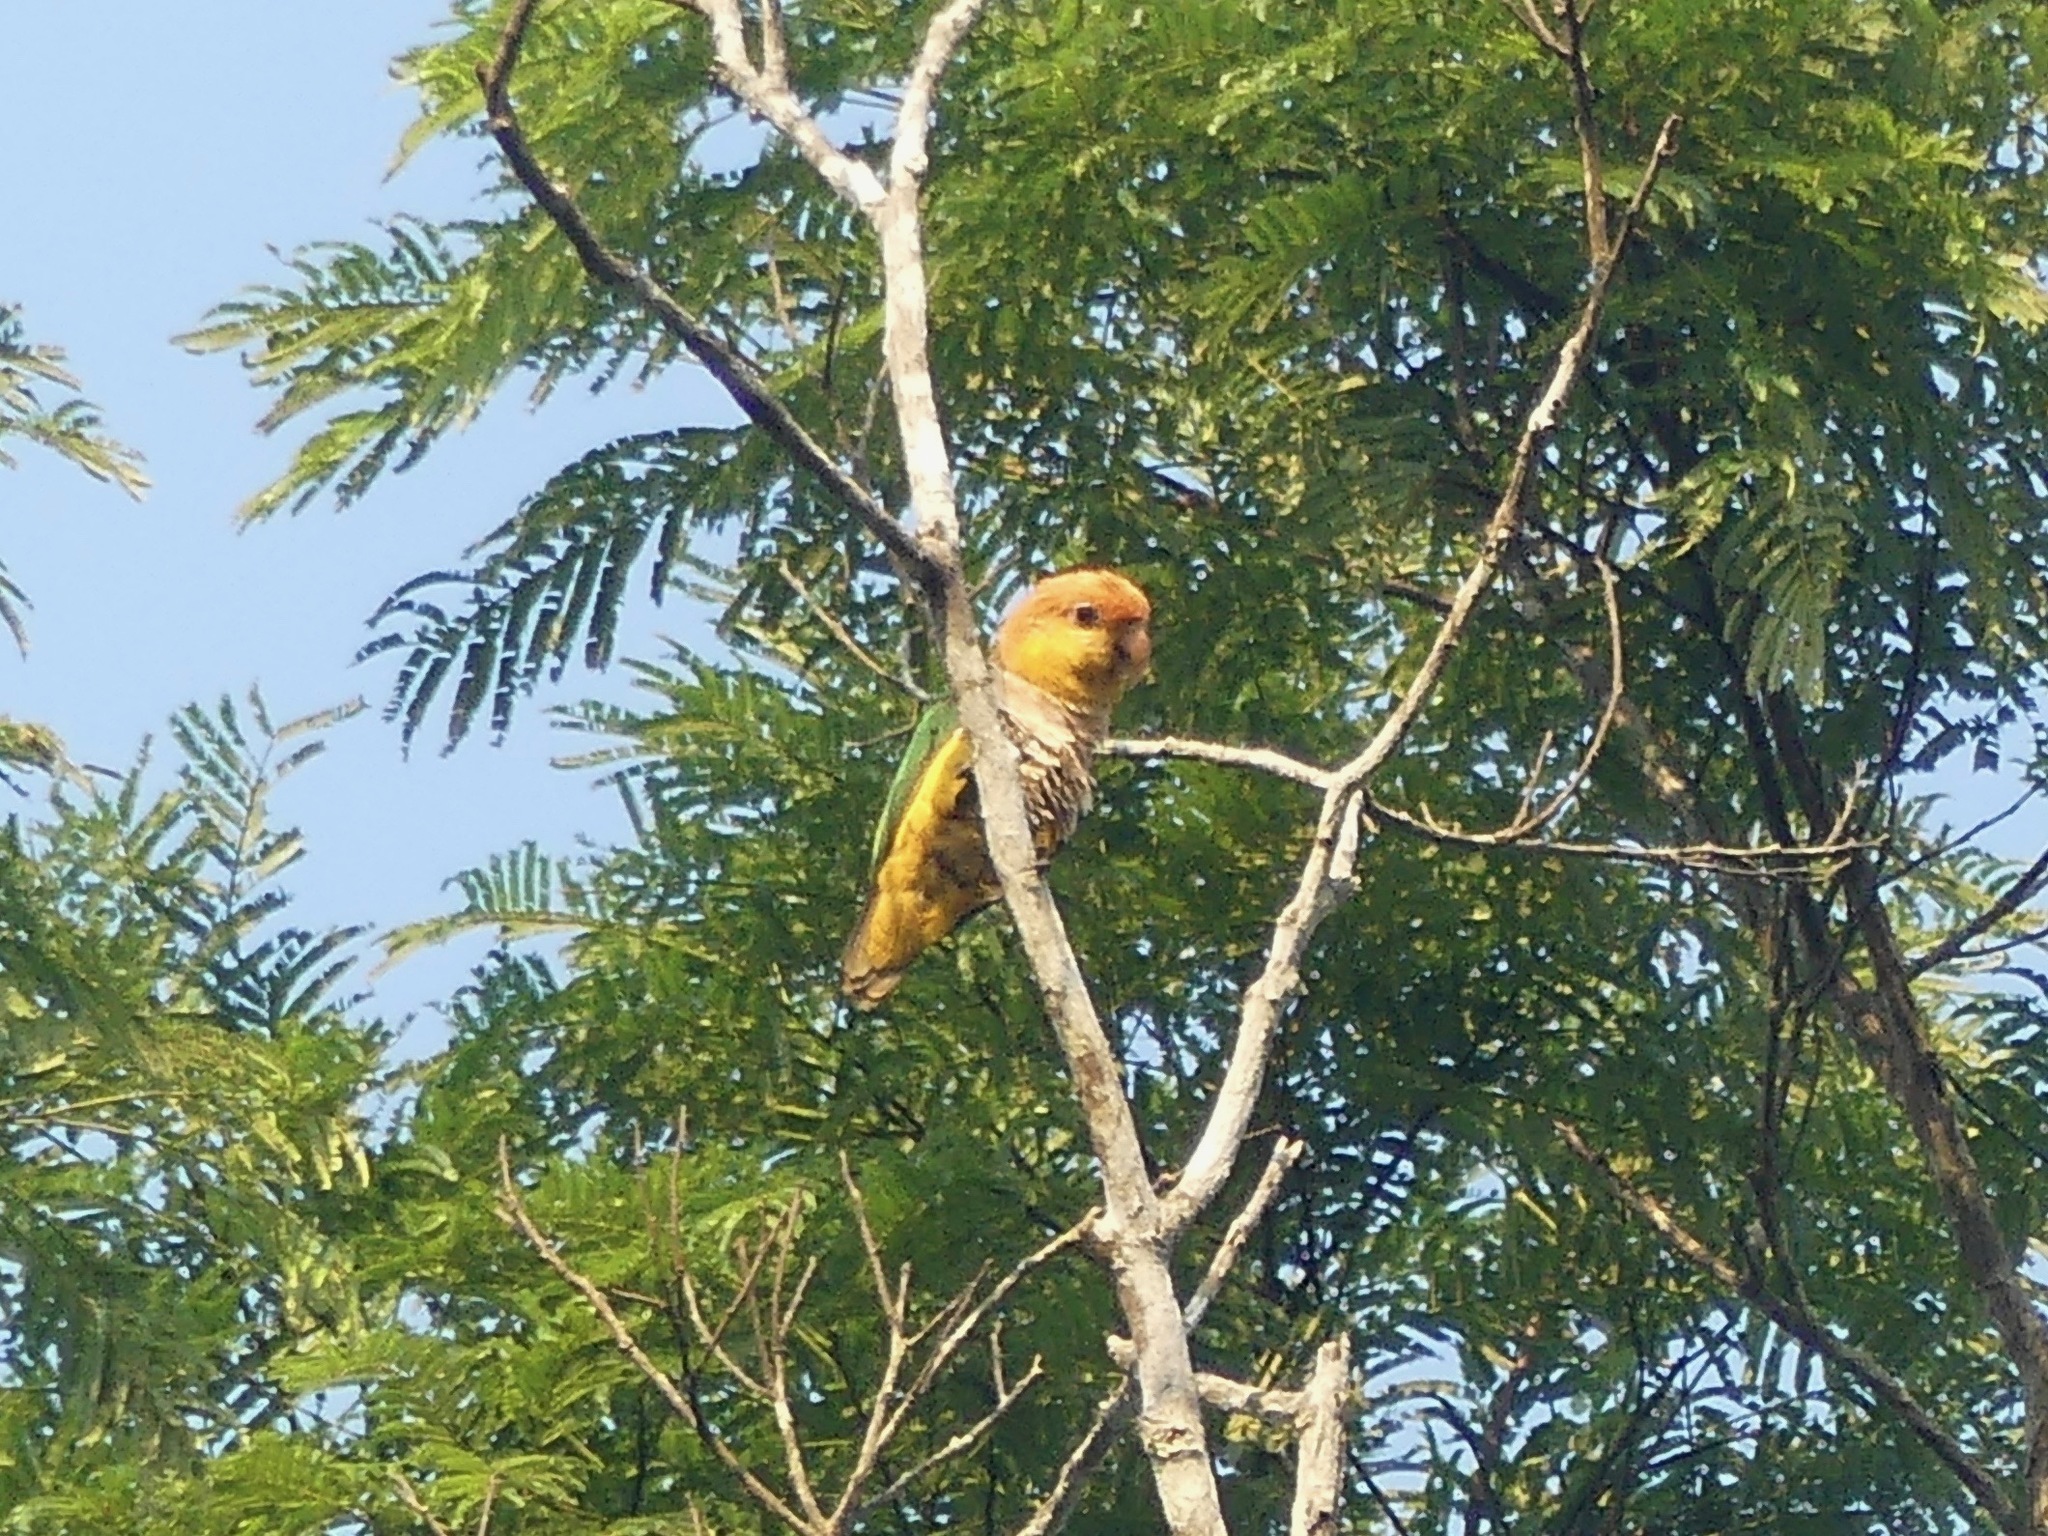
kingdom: Animalia
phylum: Chordata
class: Aves
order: Psittaciformes
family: Psittacidae
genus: Pionites
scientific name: Pionites leucogaster
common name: White-bellied parrot
